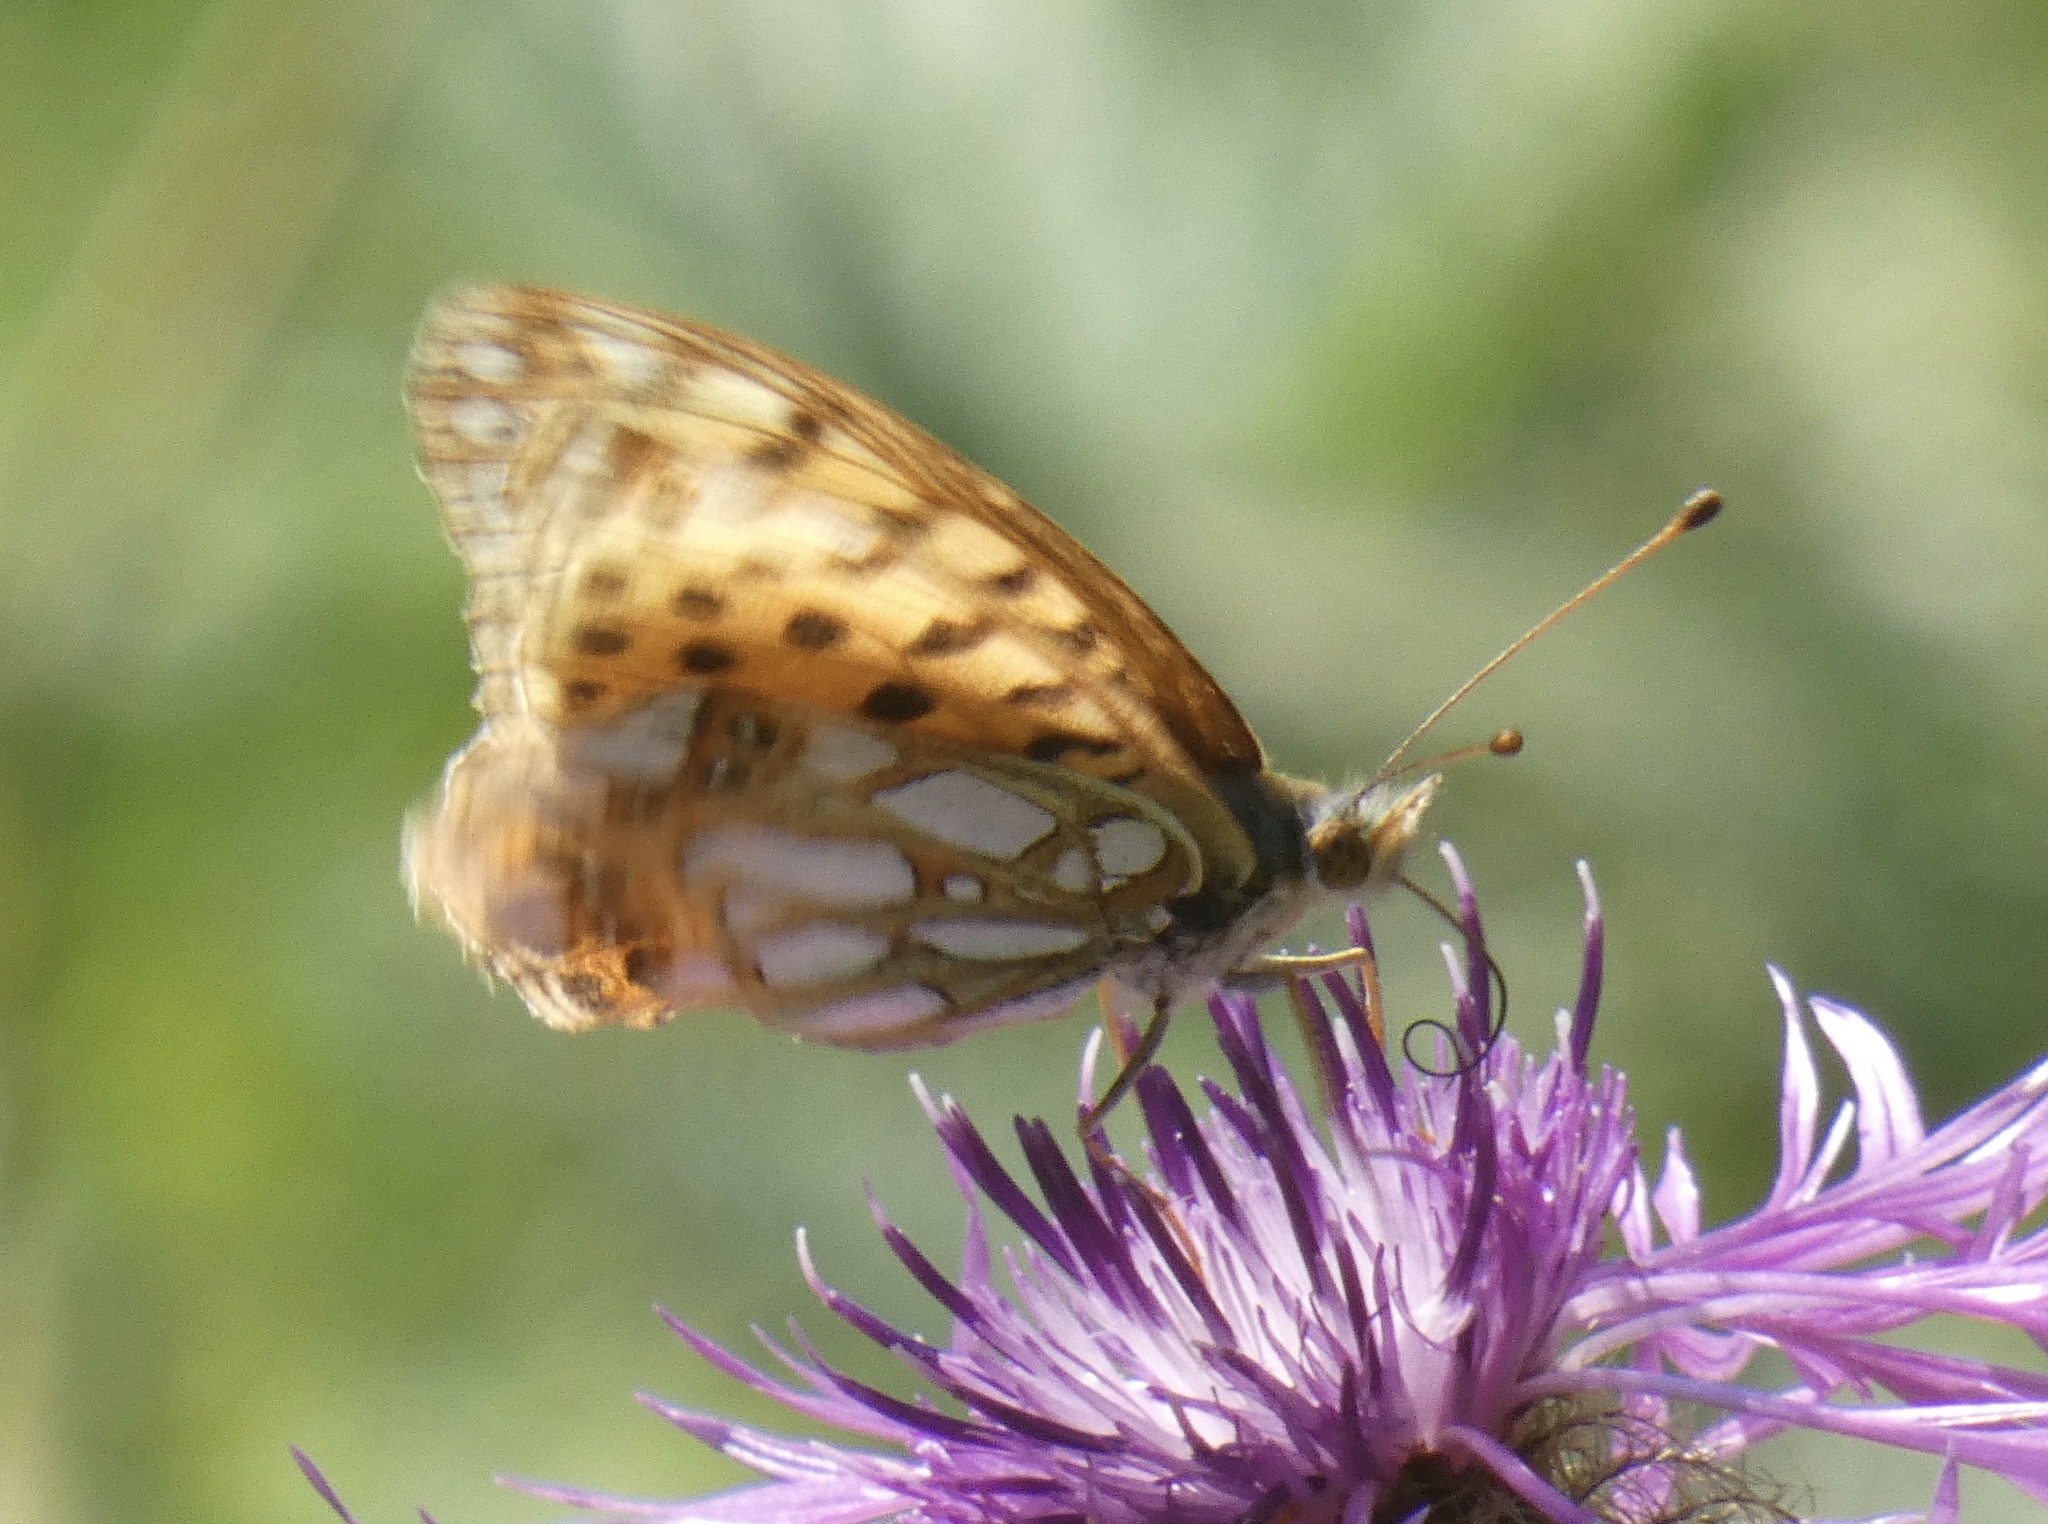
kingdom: Animalia
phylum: Arthropoda
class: Insecta
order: Lepidoptera
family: Nymphalidae
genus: Issoria
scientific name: Issoria lathonia
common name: Queen of spain fritillary
